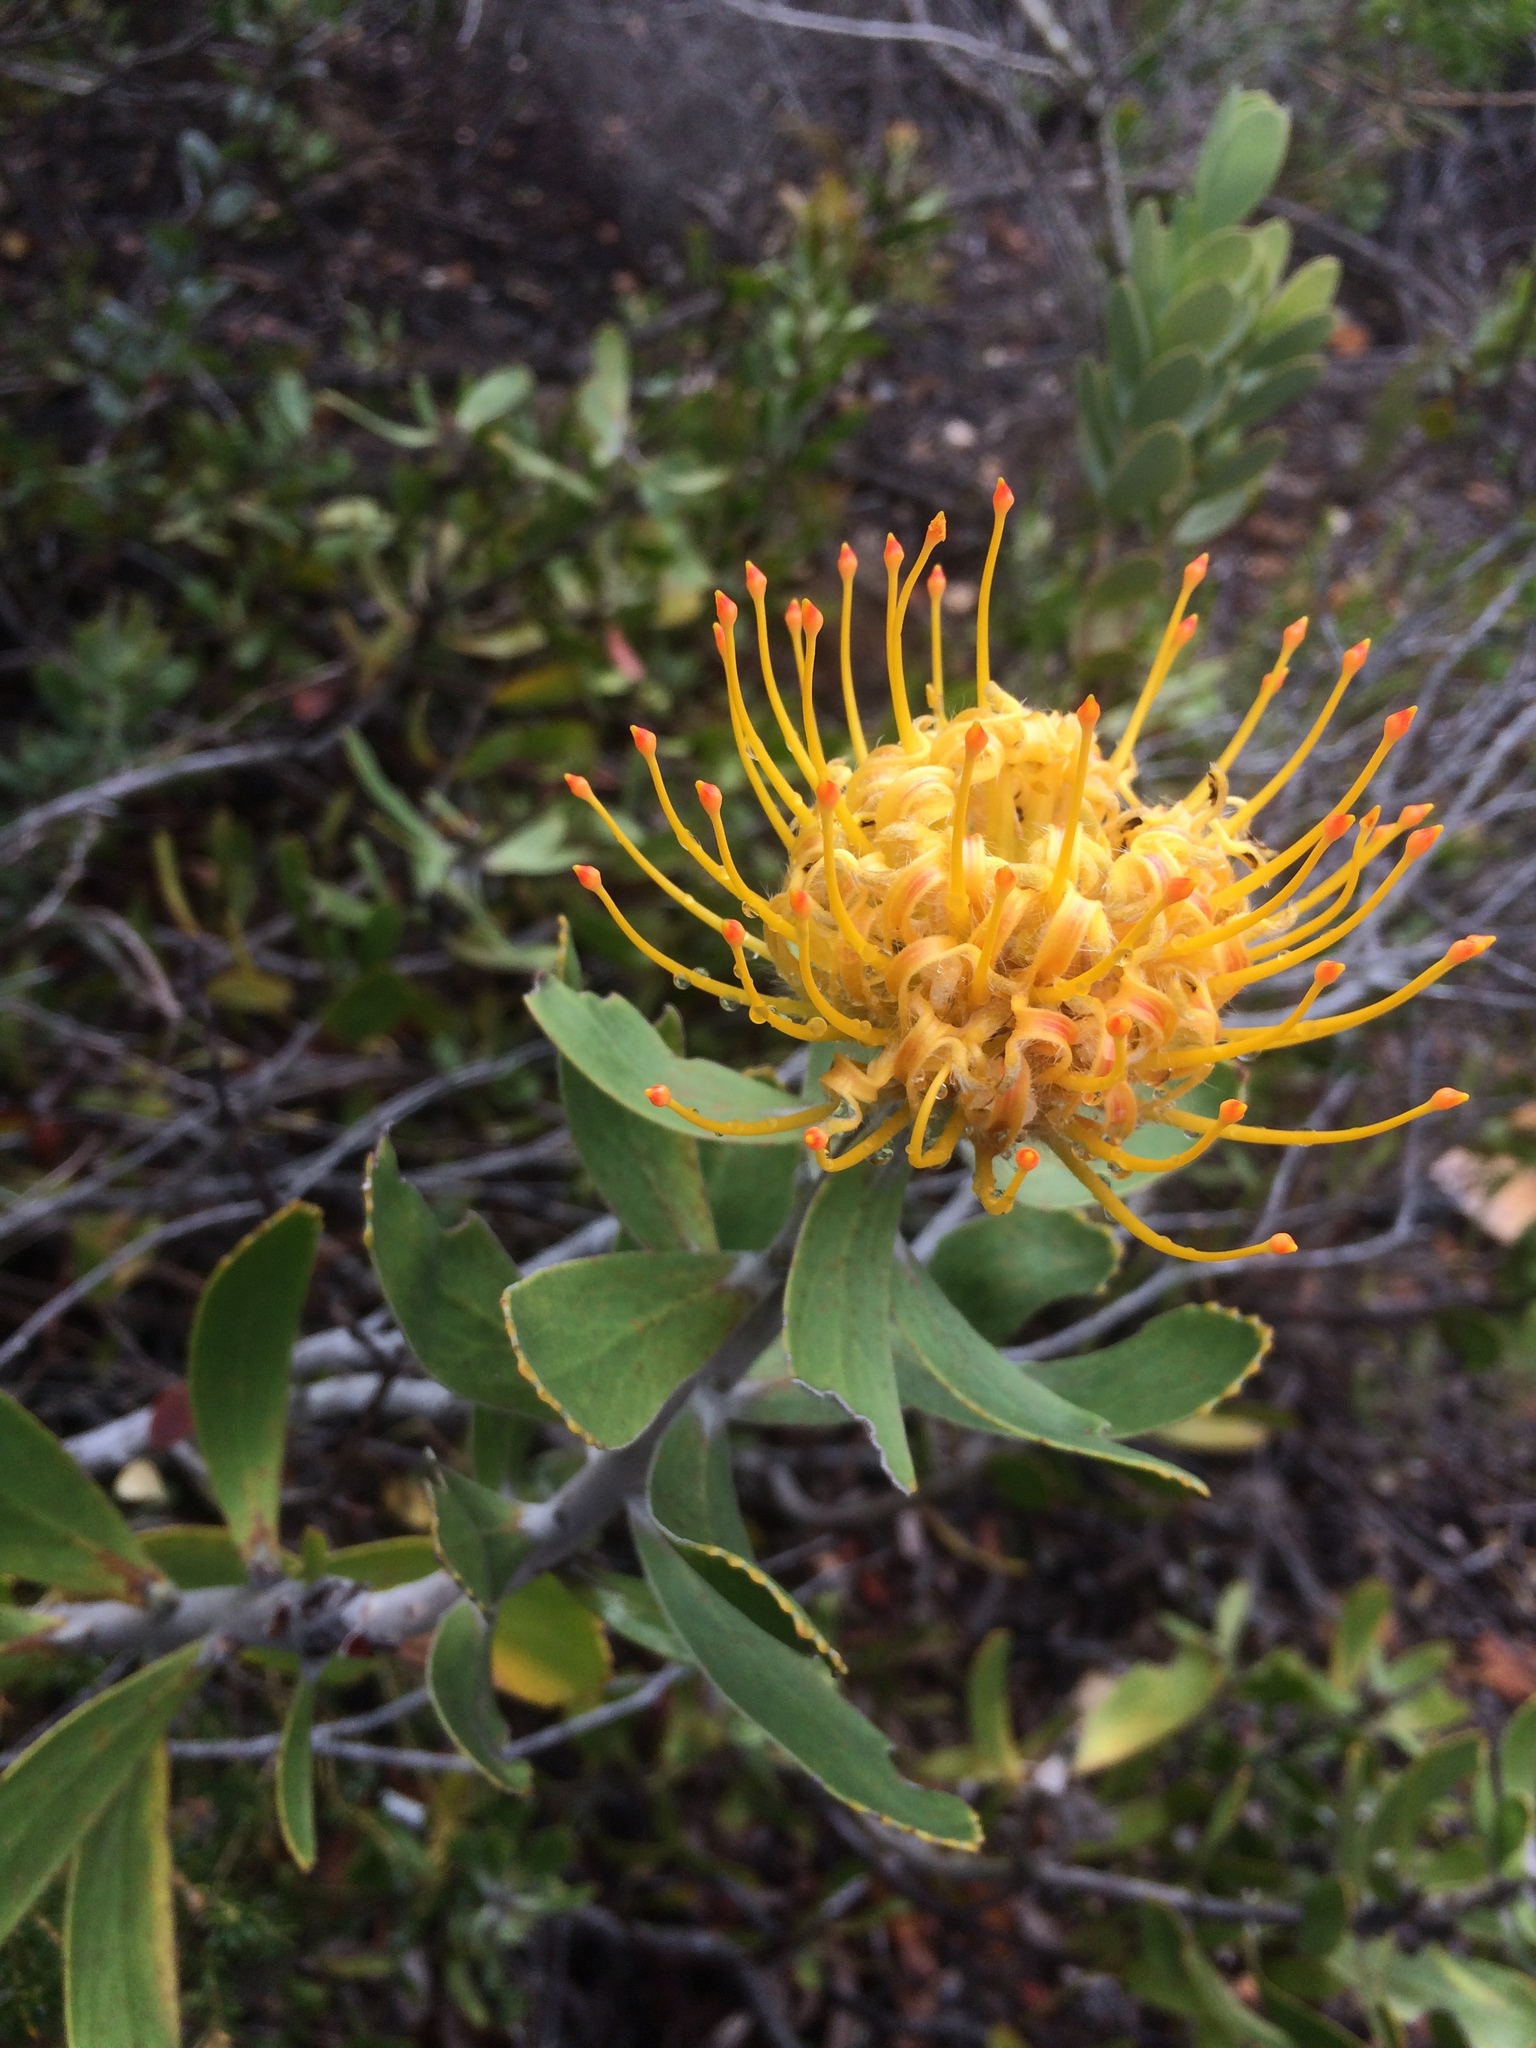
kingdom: Plantae
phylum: Tracheophyta
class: Magnoliopsida
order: Proteales
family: Proteaceae
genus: Leucospermum
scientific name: Leucospermum cuneiforme
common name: Common pincushion
